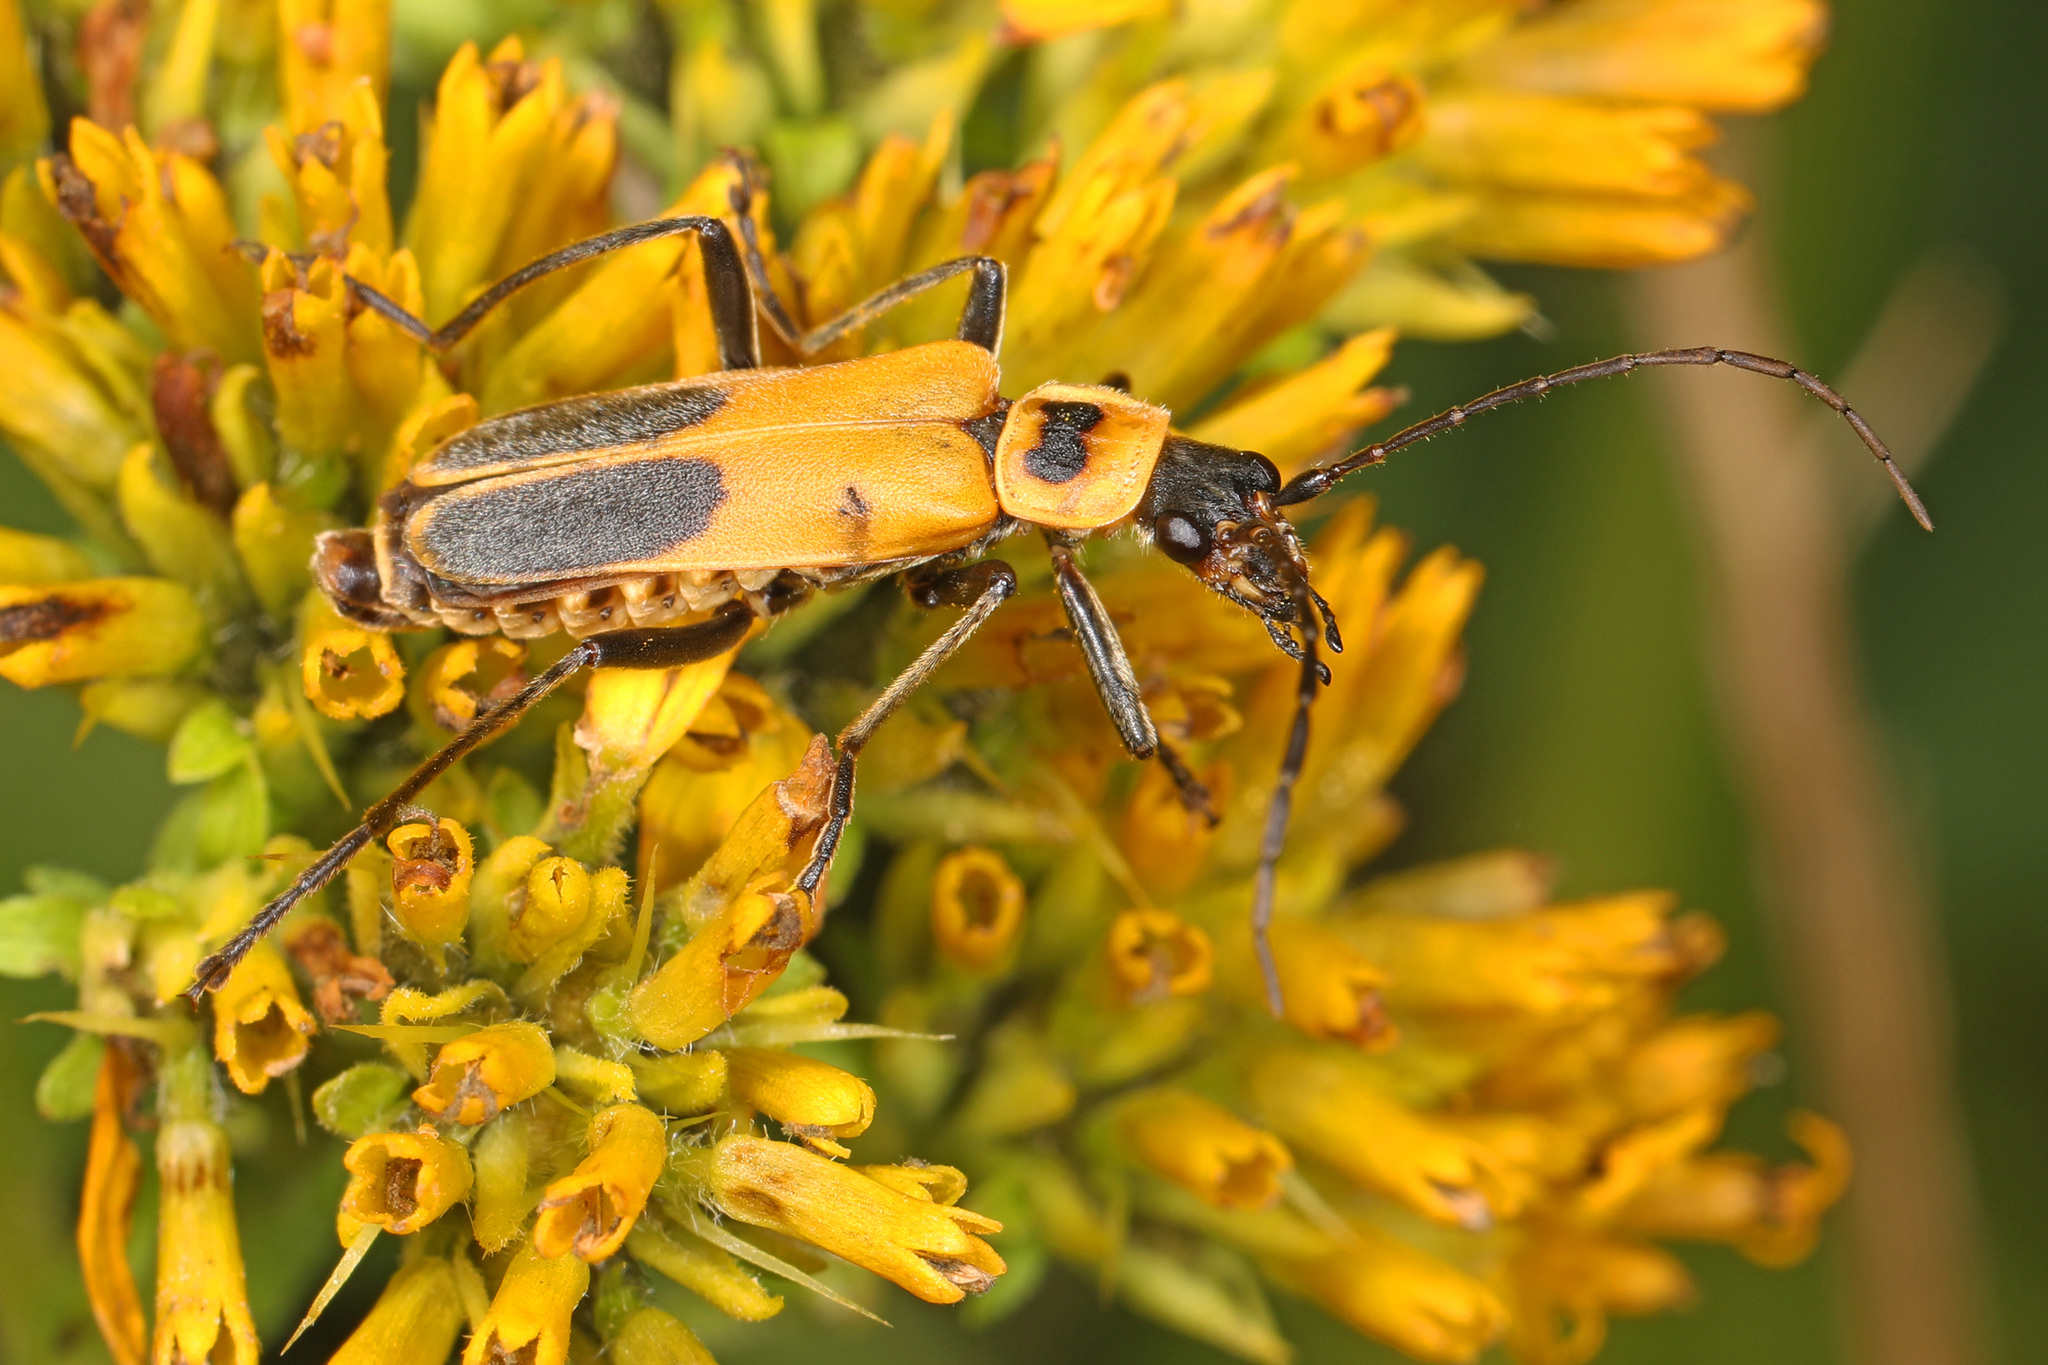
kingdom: Animalia
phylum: Arthropoda
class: Insecta
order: Coleoptera
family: Cantharidae
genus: Chauliognathus
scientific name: Chauliognathus pensylvanicus
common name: Goldenrod soldier beetle
